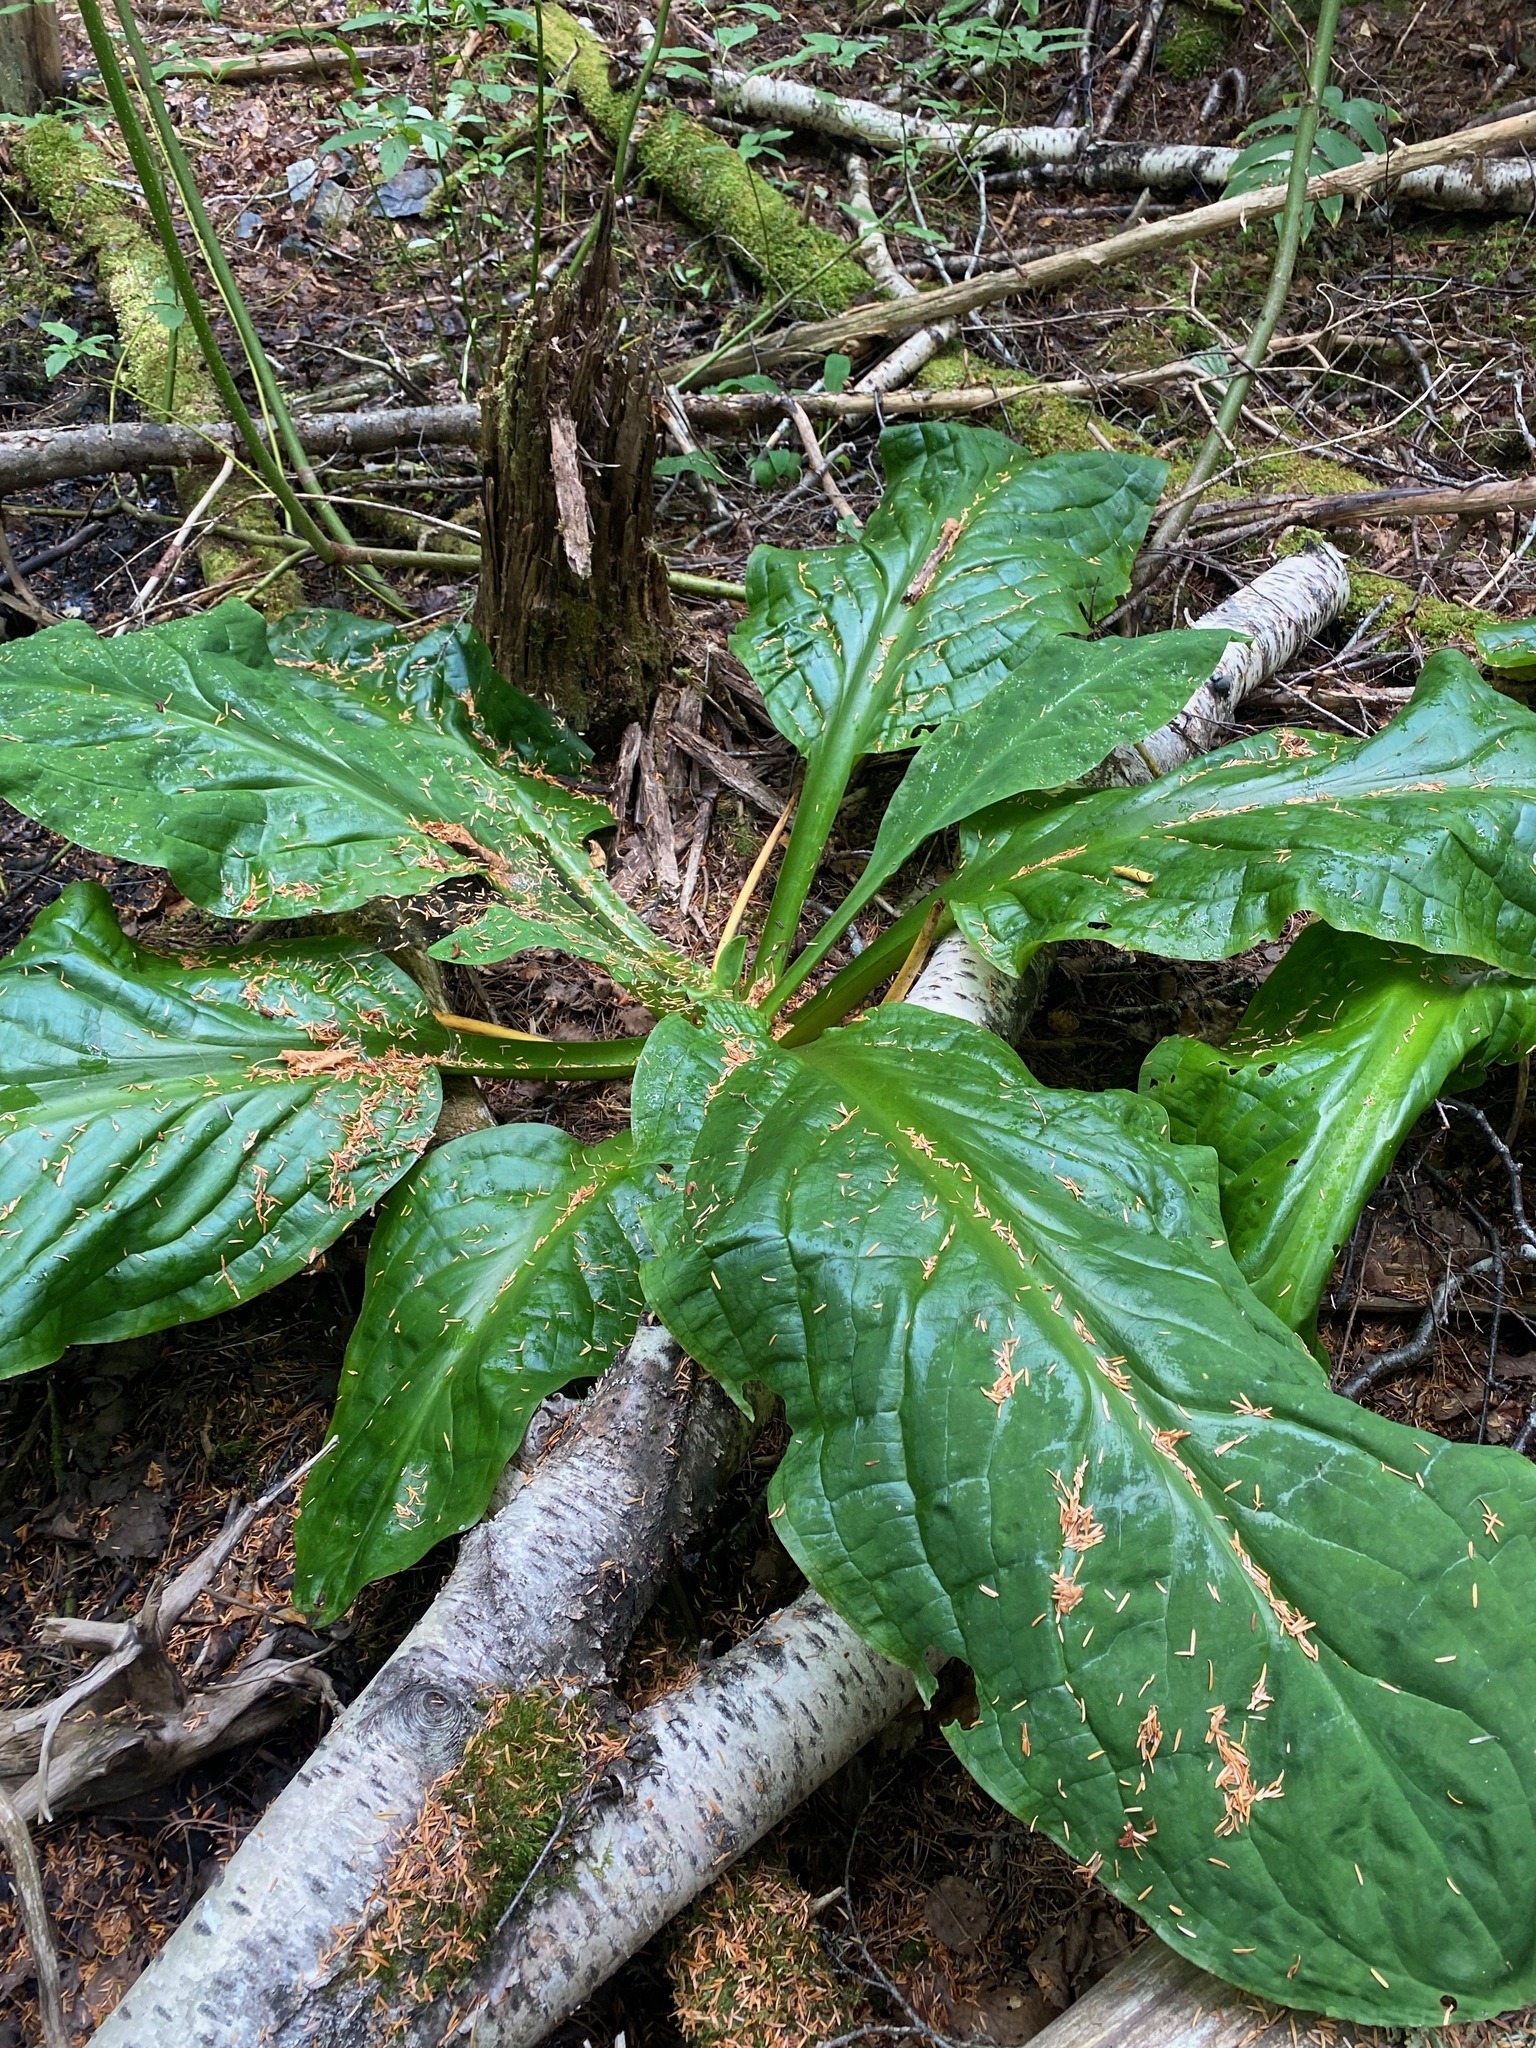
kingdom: Plantae
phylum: Tracheophyta
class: Liliopsida
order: Alismatales
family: Araceae
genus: Lysichiton
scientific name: Lysichiton americanus
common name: American skunk cabbage
